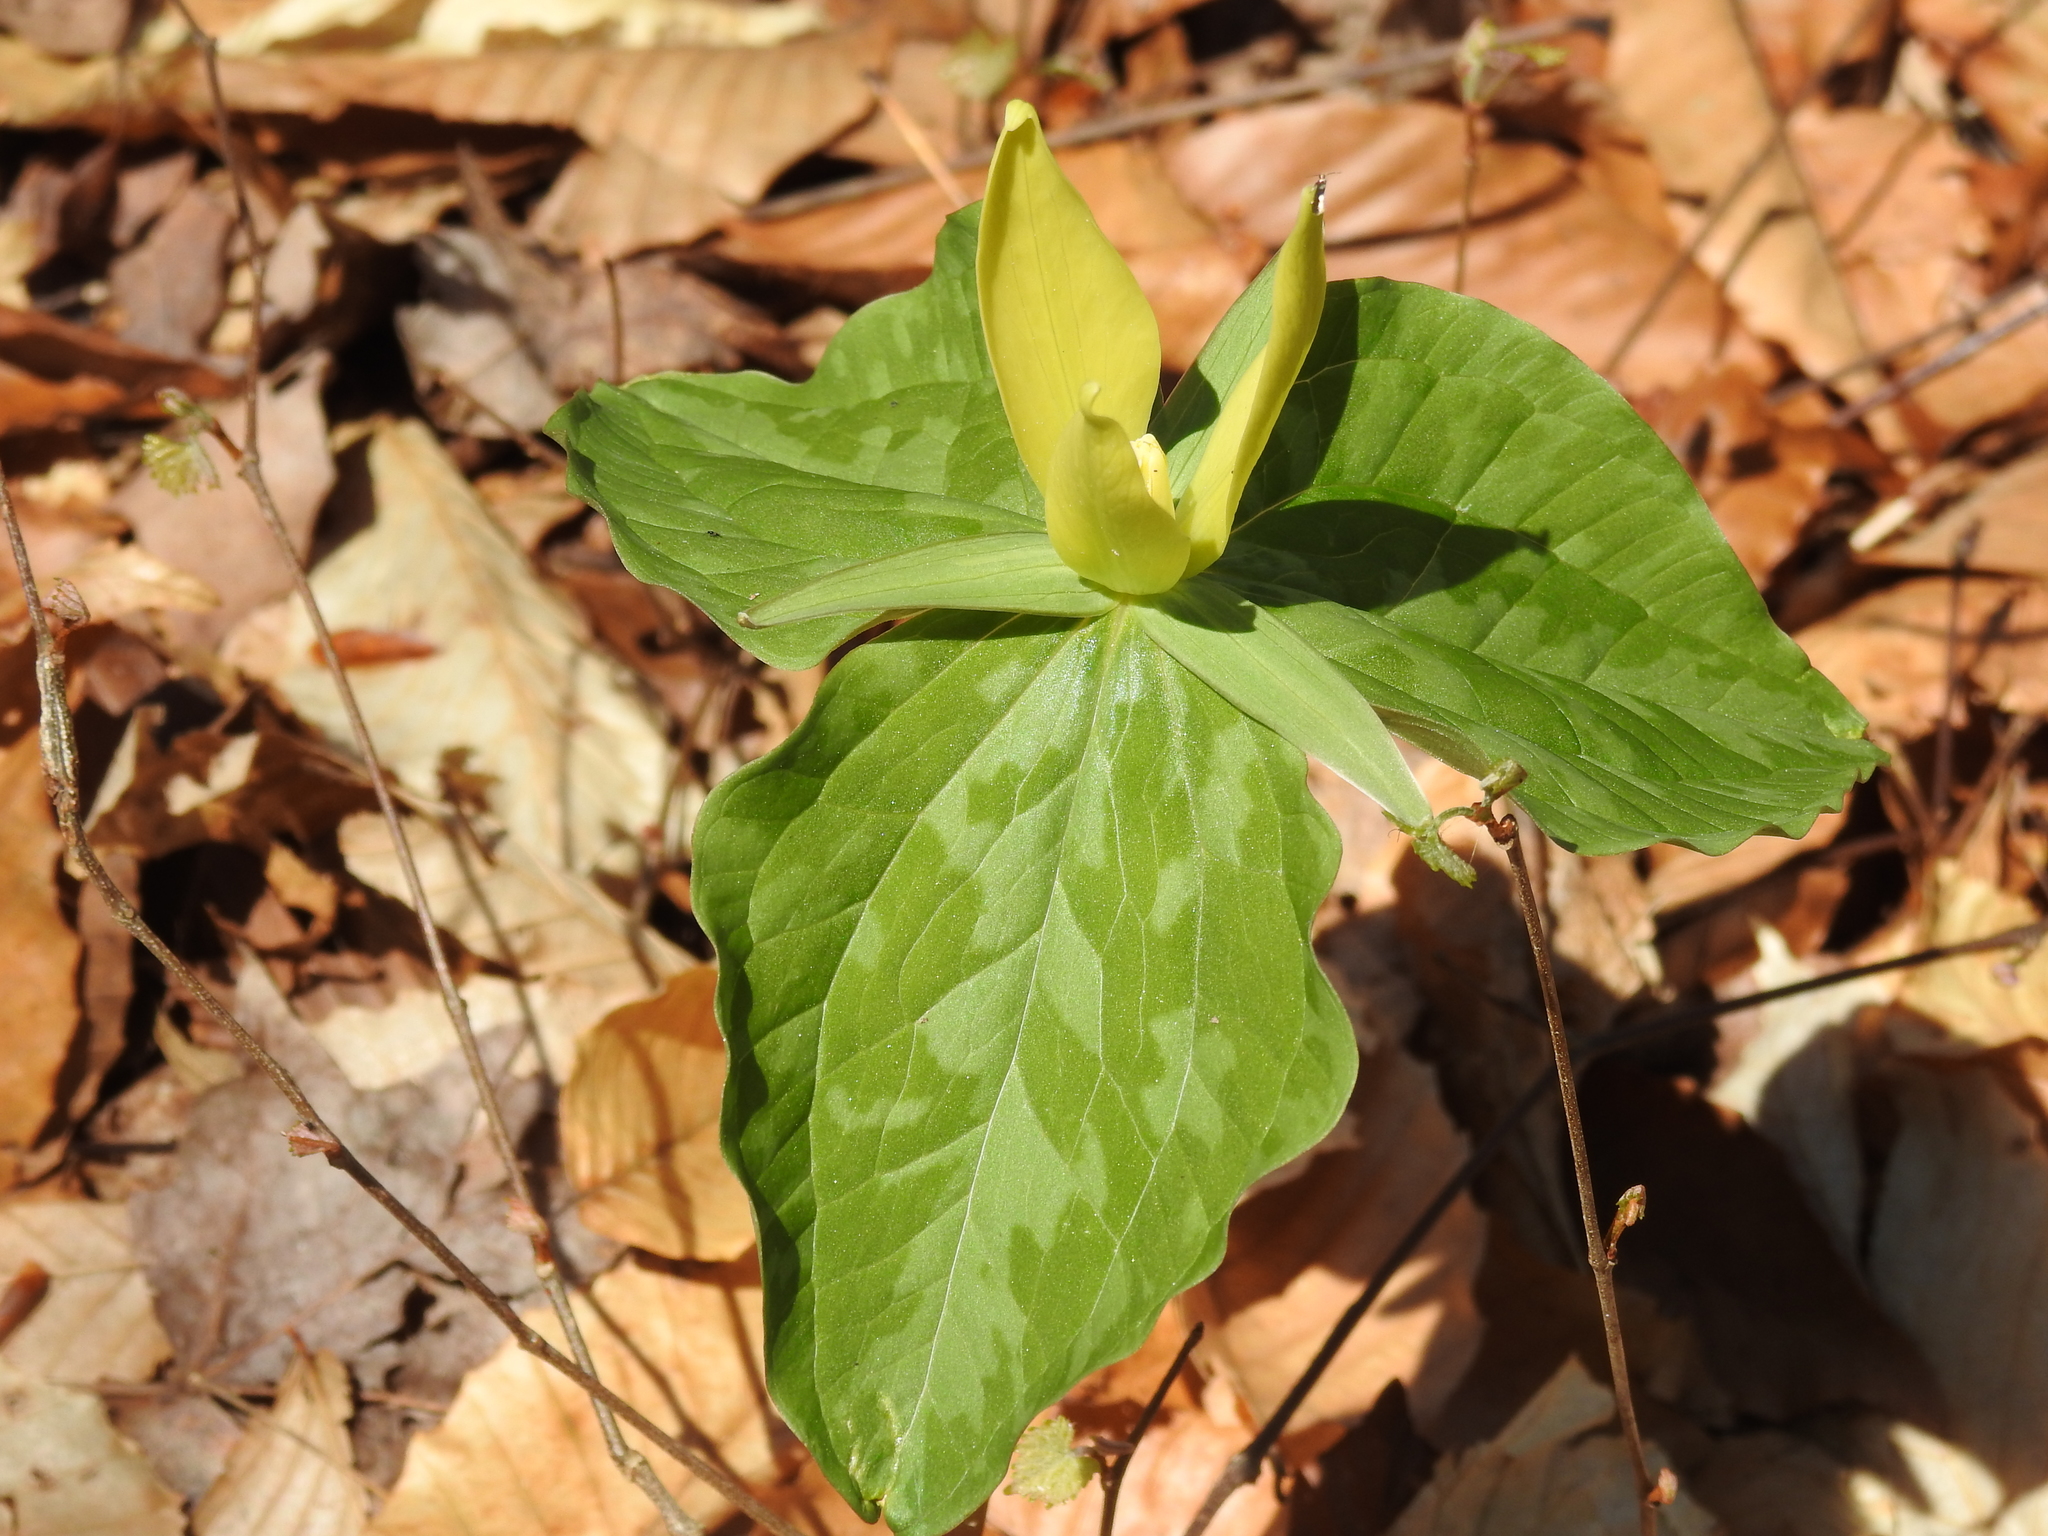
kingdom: Plantae
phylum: Tracheophyta
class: Liliopsida
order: Liliales
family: Melanthiaceae
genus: Trillium
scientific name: Trillium luteum
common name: Wax trillium
